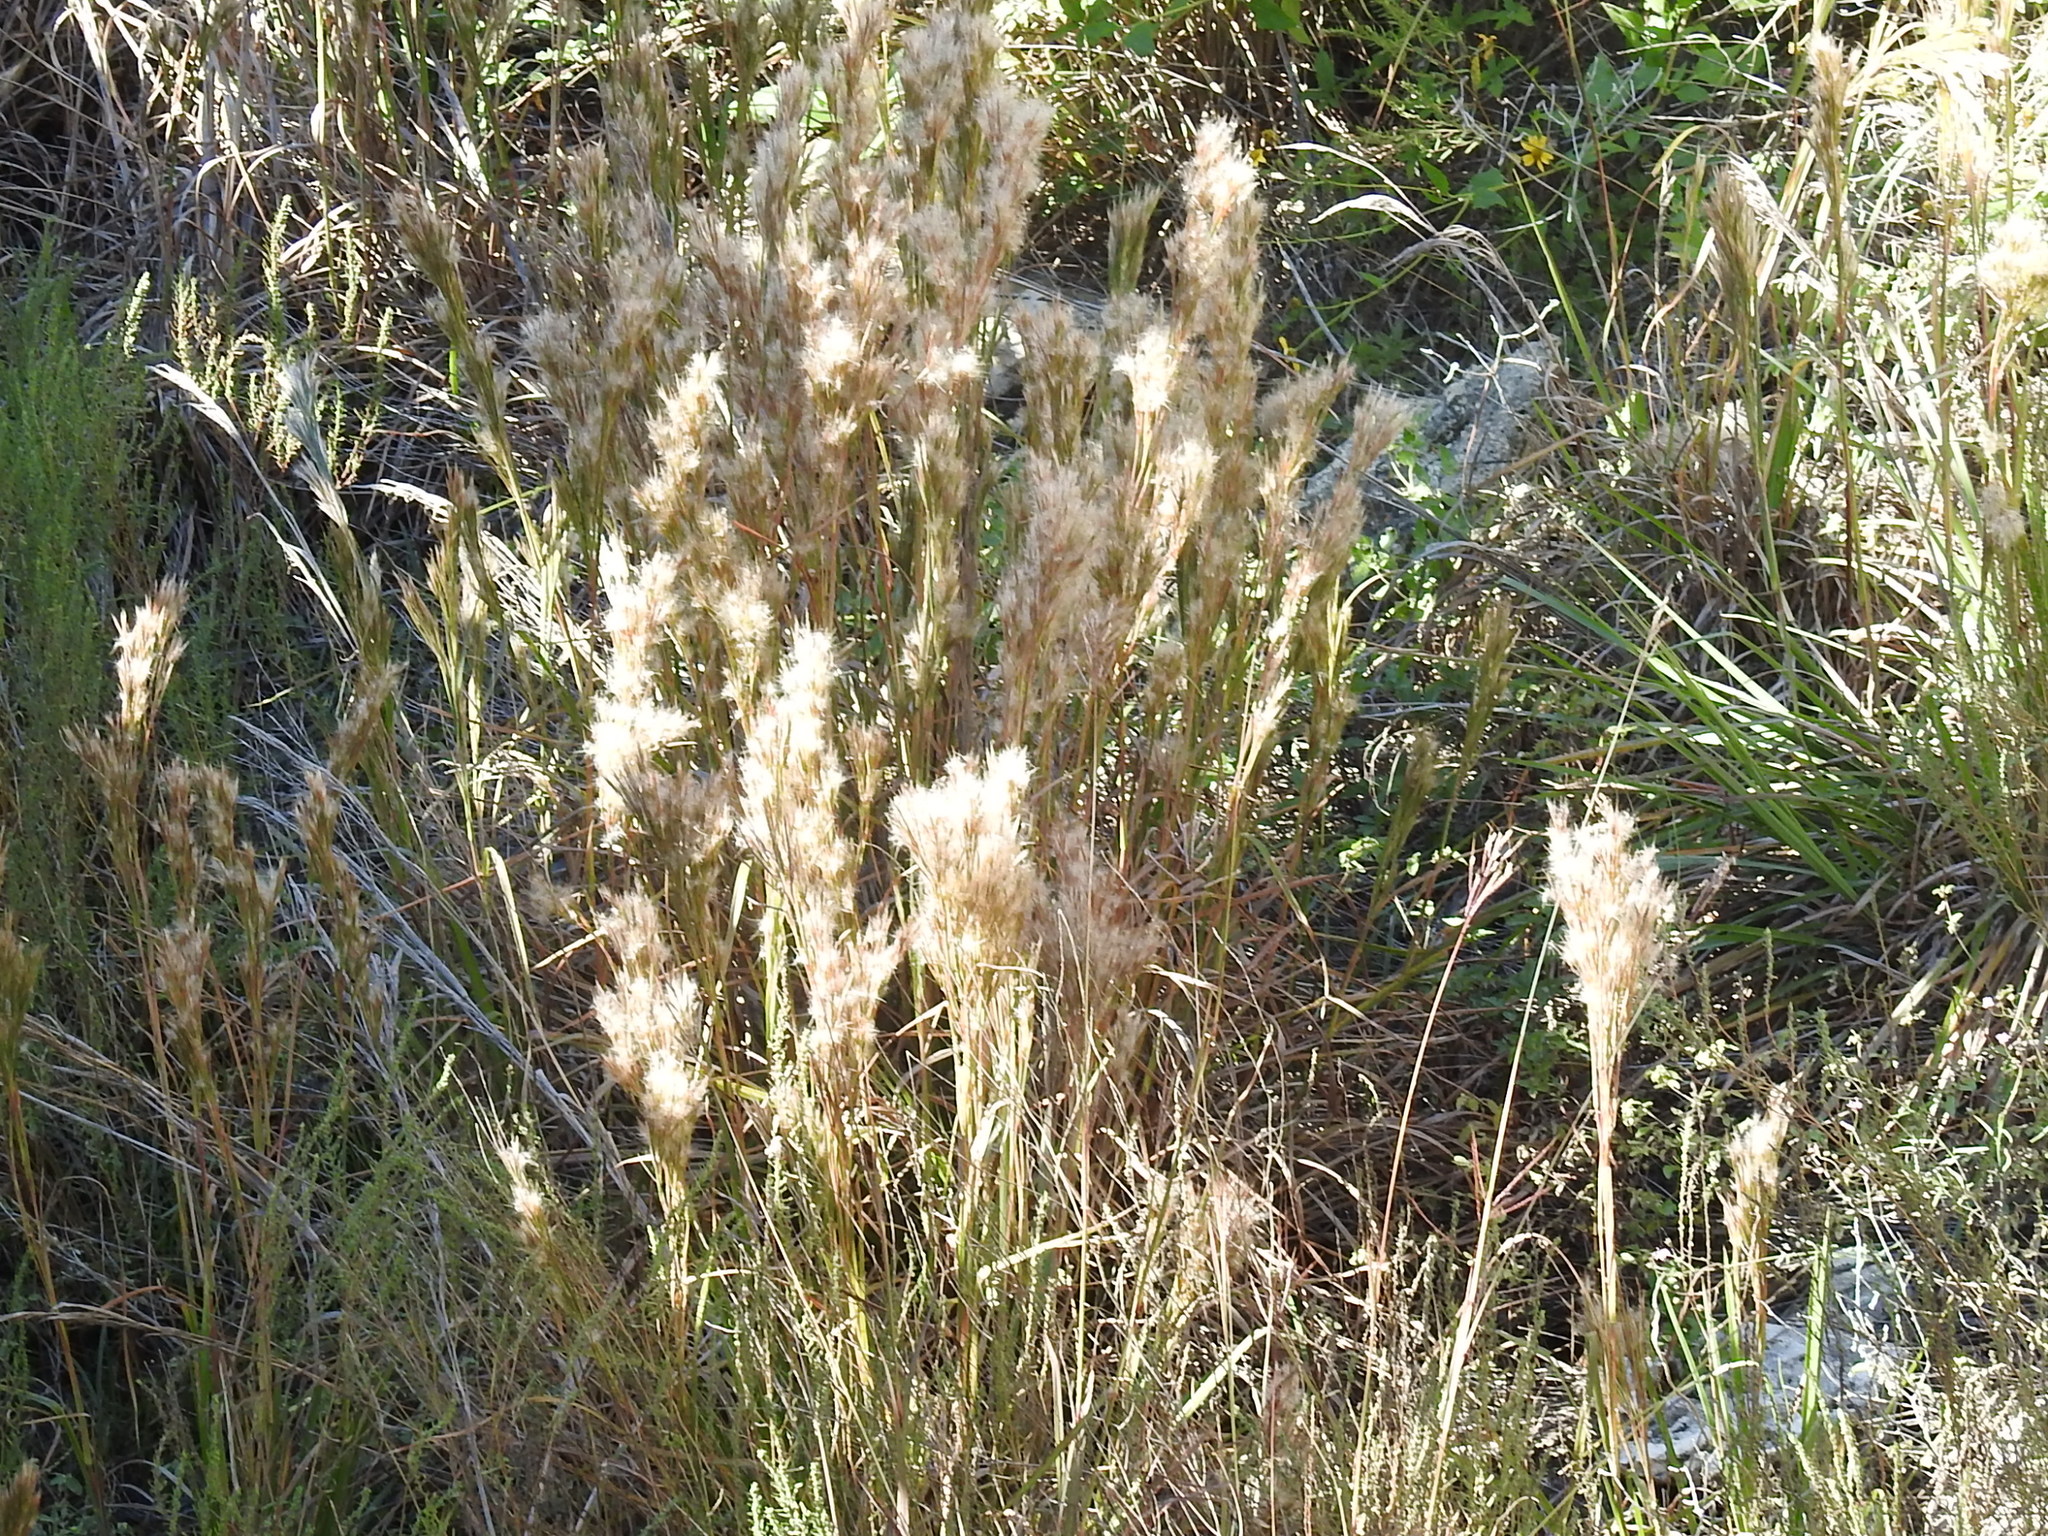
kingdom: Plantae
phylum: Tracheophyta
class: Liliopsida
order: Poales
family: Poaceae
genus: Andropogon
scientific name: Andropogon tenuispatheus
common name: Bushy bluestem
